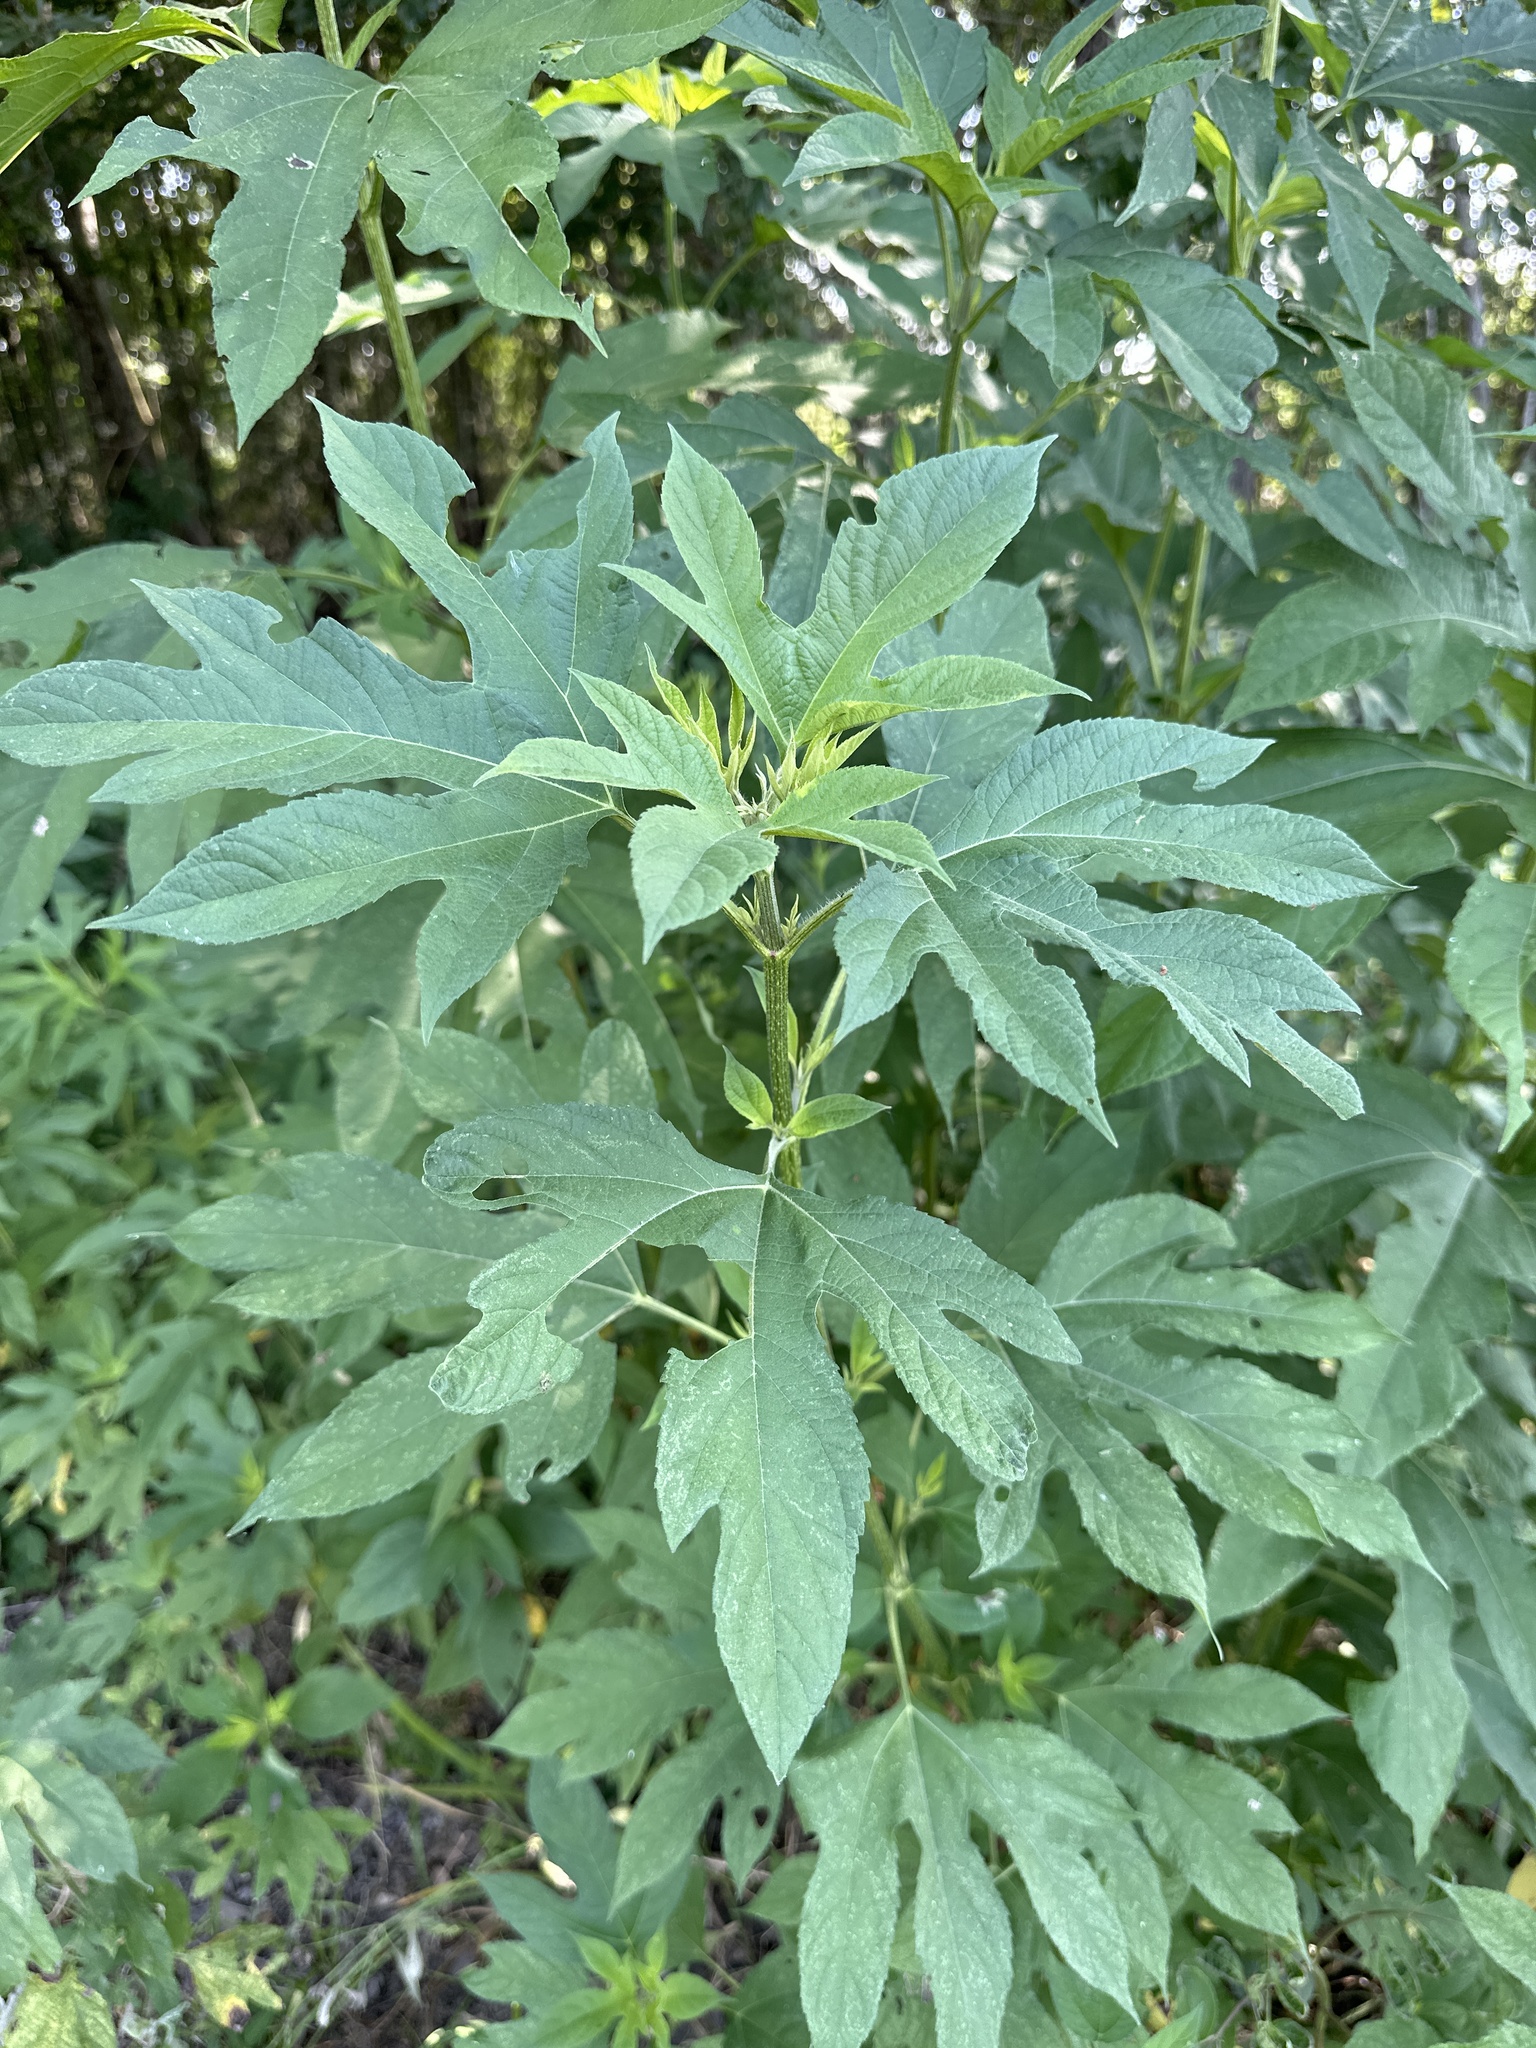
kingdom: Plantae
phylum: Tracheophyta
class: Magnoliopsida
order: Asterales
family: Asteraceae
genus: Ambrosia
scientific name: Ambrosia trifida
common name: Giant ragweed
